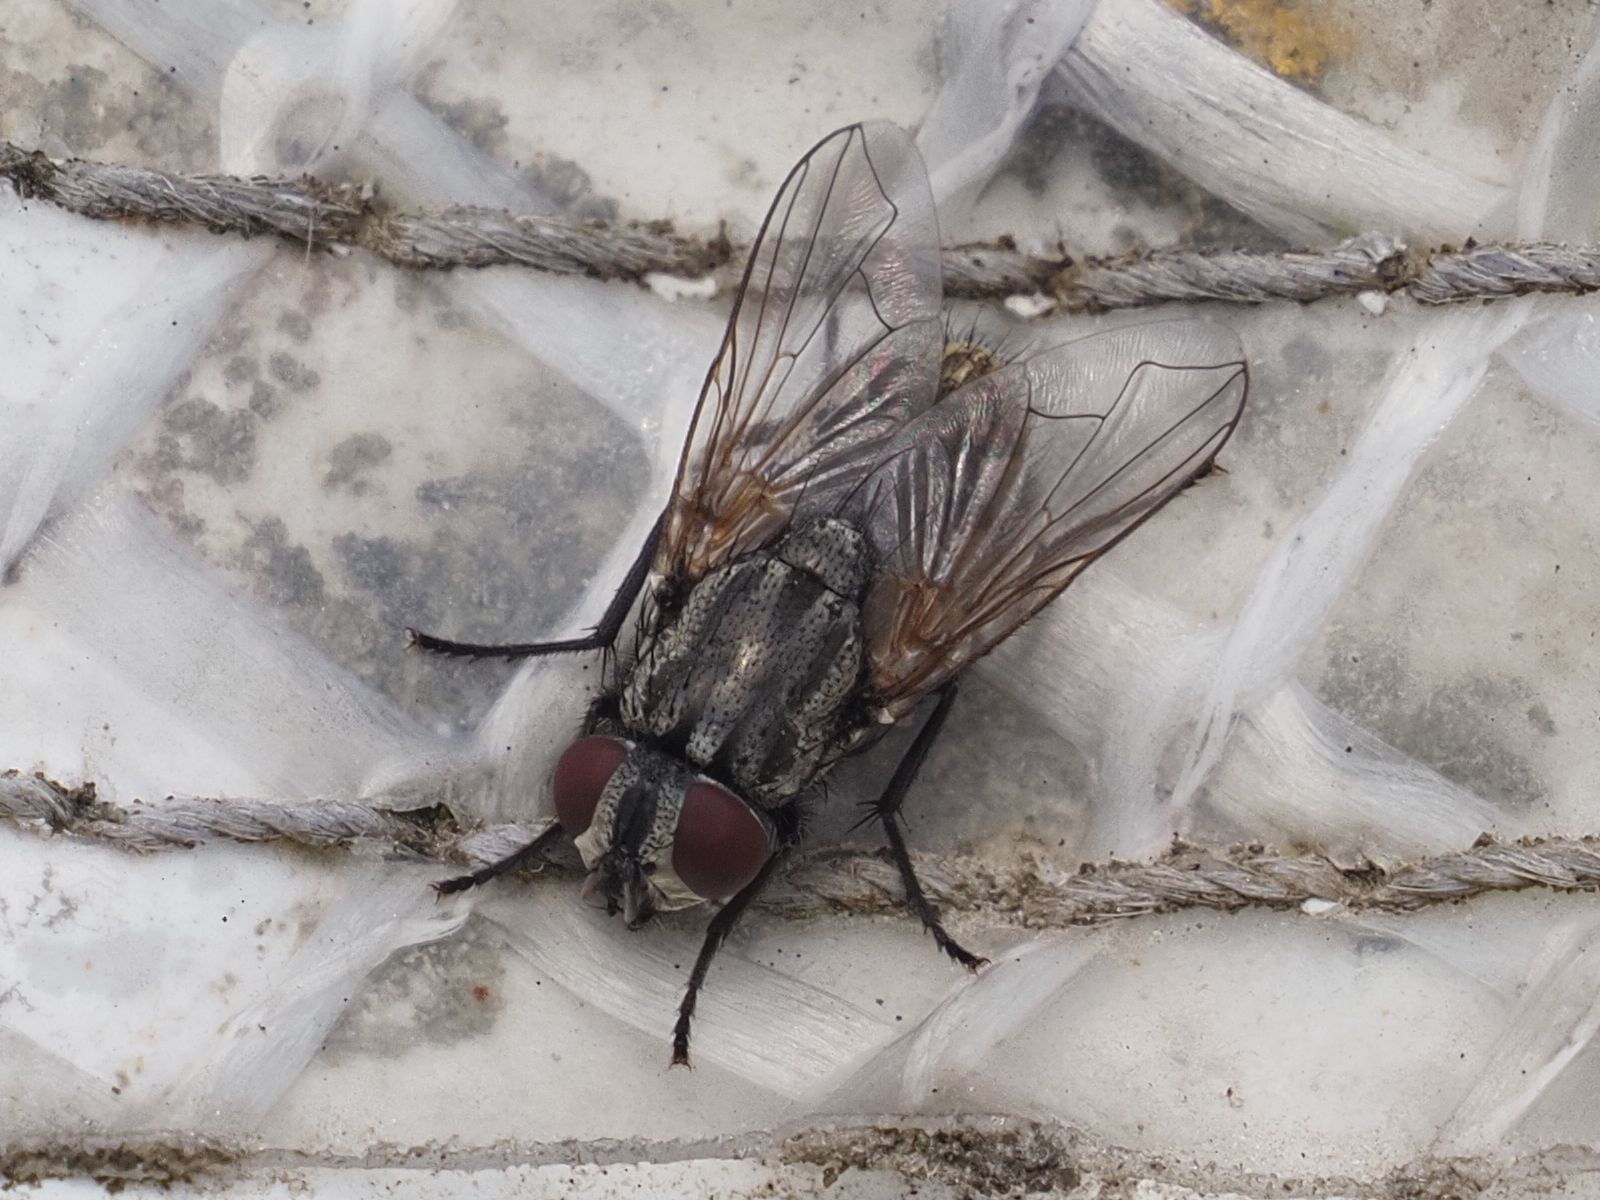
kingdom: Animalia
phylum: Arthropoda
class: Insecta
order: Diptera
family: Muscidae
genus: Musca
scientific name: Musca autumnalis
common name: Face fly
